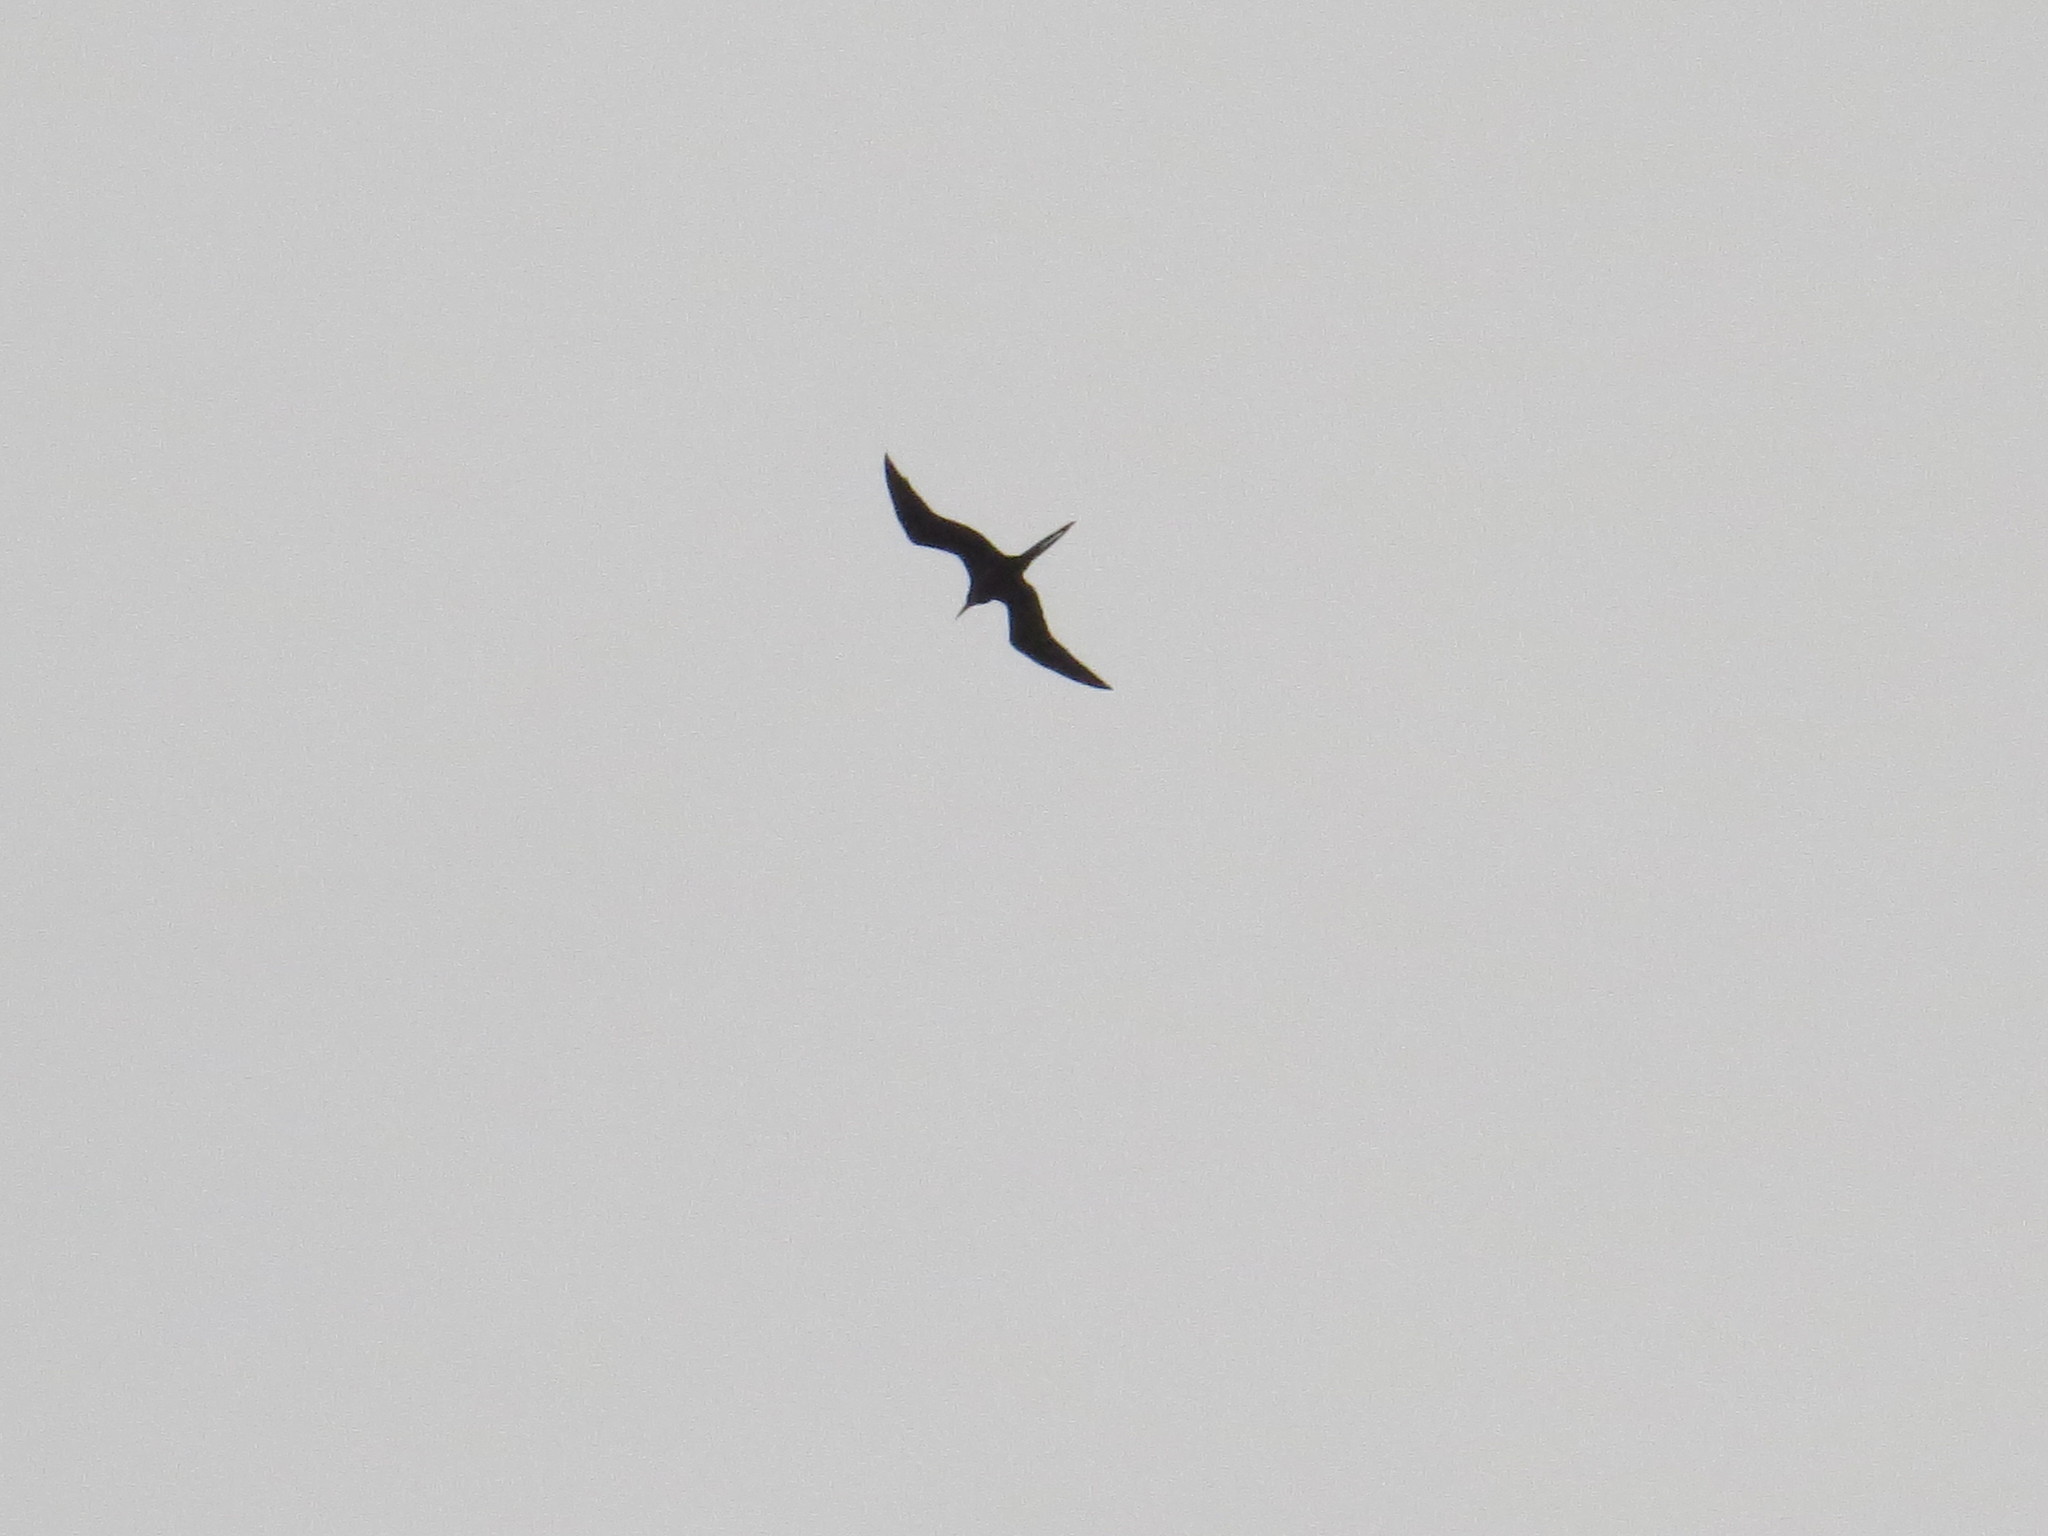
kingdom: Animalia
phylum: Chordata
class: Aves
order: Suliformes
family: Fregatidae
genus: Fregata
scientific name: Fregata minor
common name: Great frigatebird
